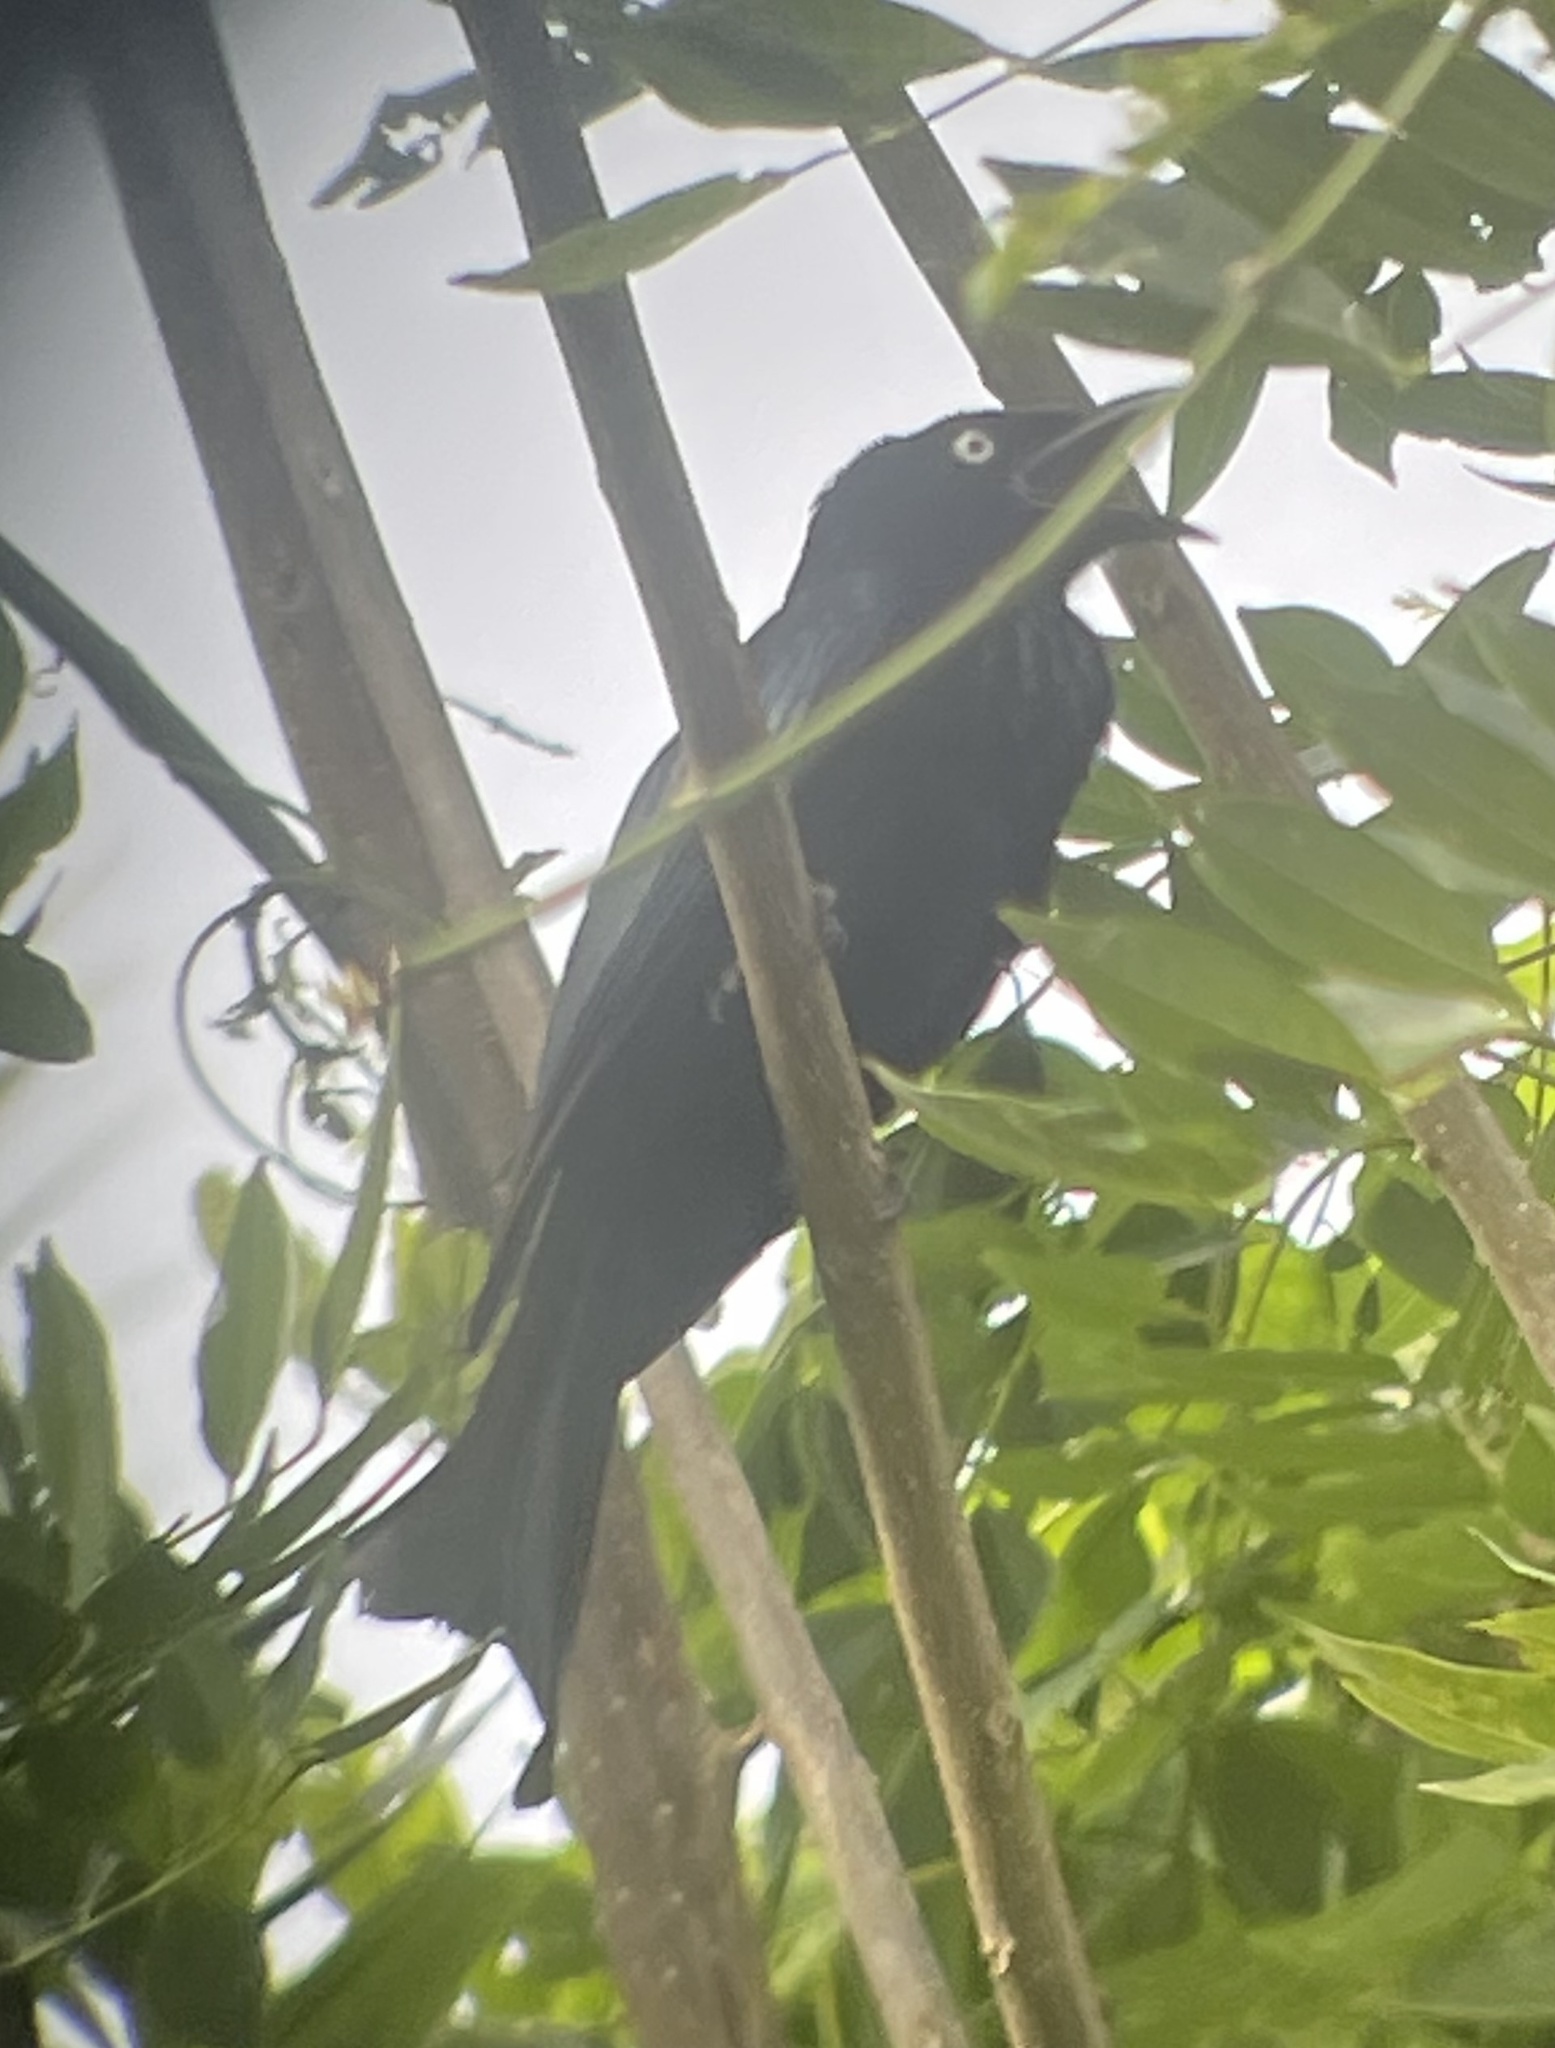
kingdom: Animalia
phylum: Chordata
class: Aves
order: Passeriformes
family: Dicruridae
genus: Dicrurus
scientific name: Dicrurus hottentottus
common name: Hair-crested drongo
